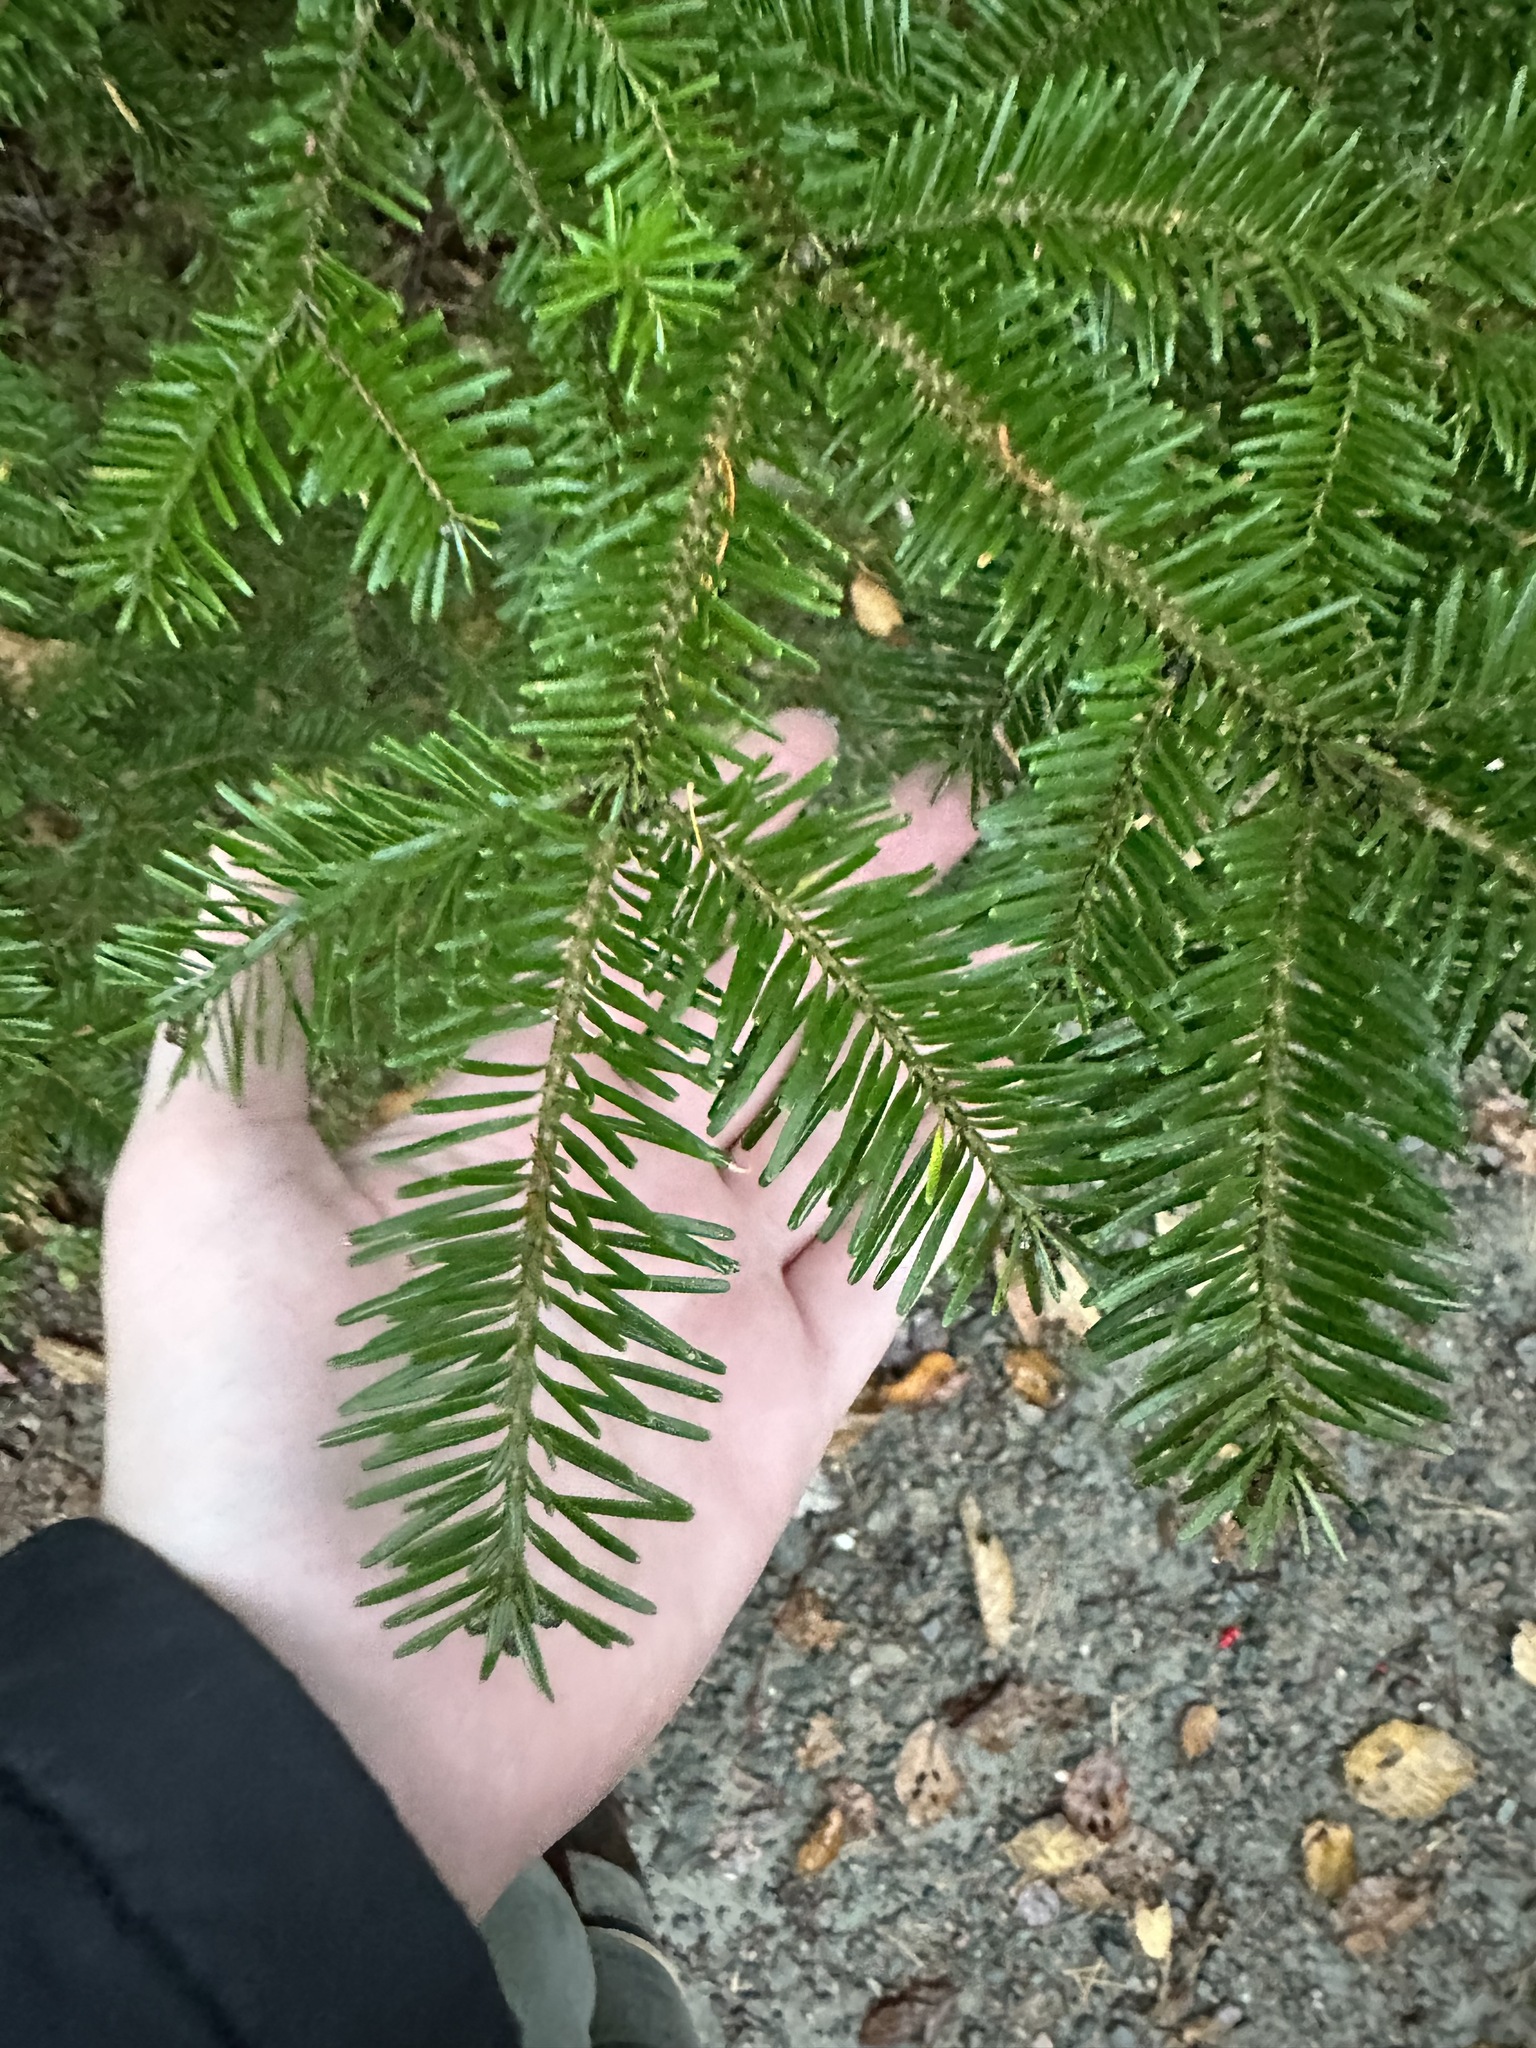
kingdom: Plantae
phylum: Tracheophyta
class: Pinopsida
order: Pinales
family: Pinaceae
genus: Abies
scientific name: Abies balsamea
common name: Balsam fir
